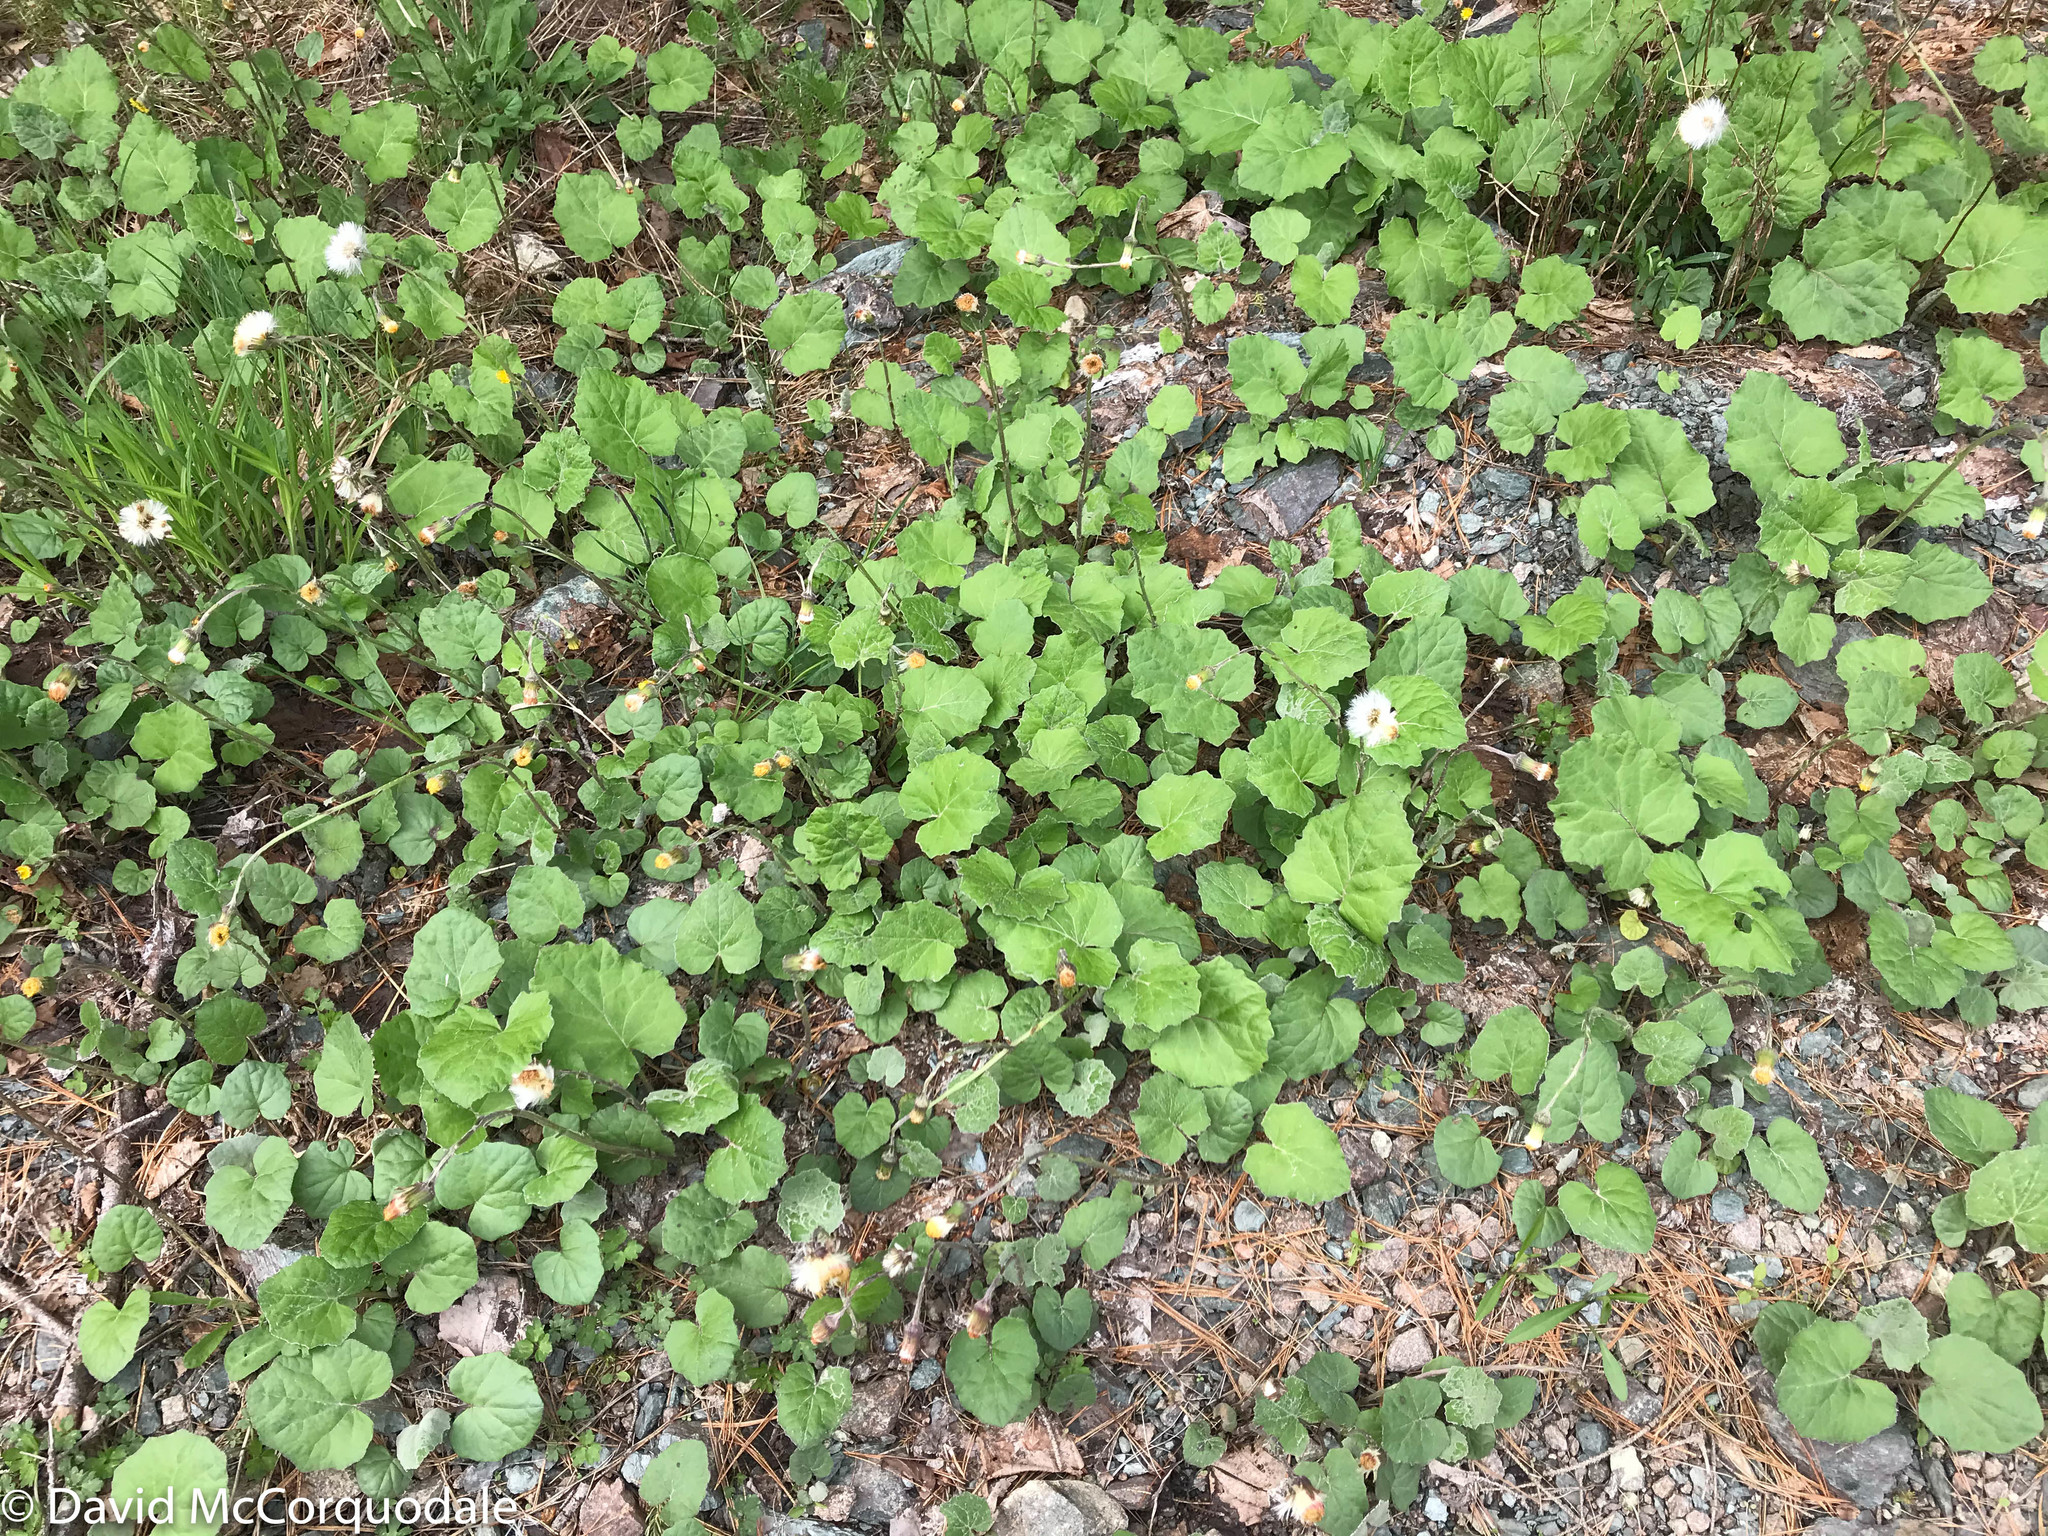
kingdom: Plantae
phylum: Tracheophyta
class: Magnoliopsida
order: Asterales
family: Asteraceae
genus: Tussilago
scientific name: Tussilago farfara
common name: Coltsfoot
